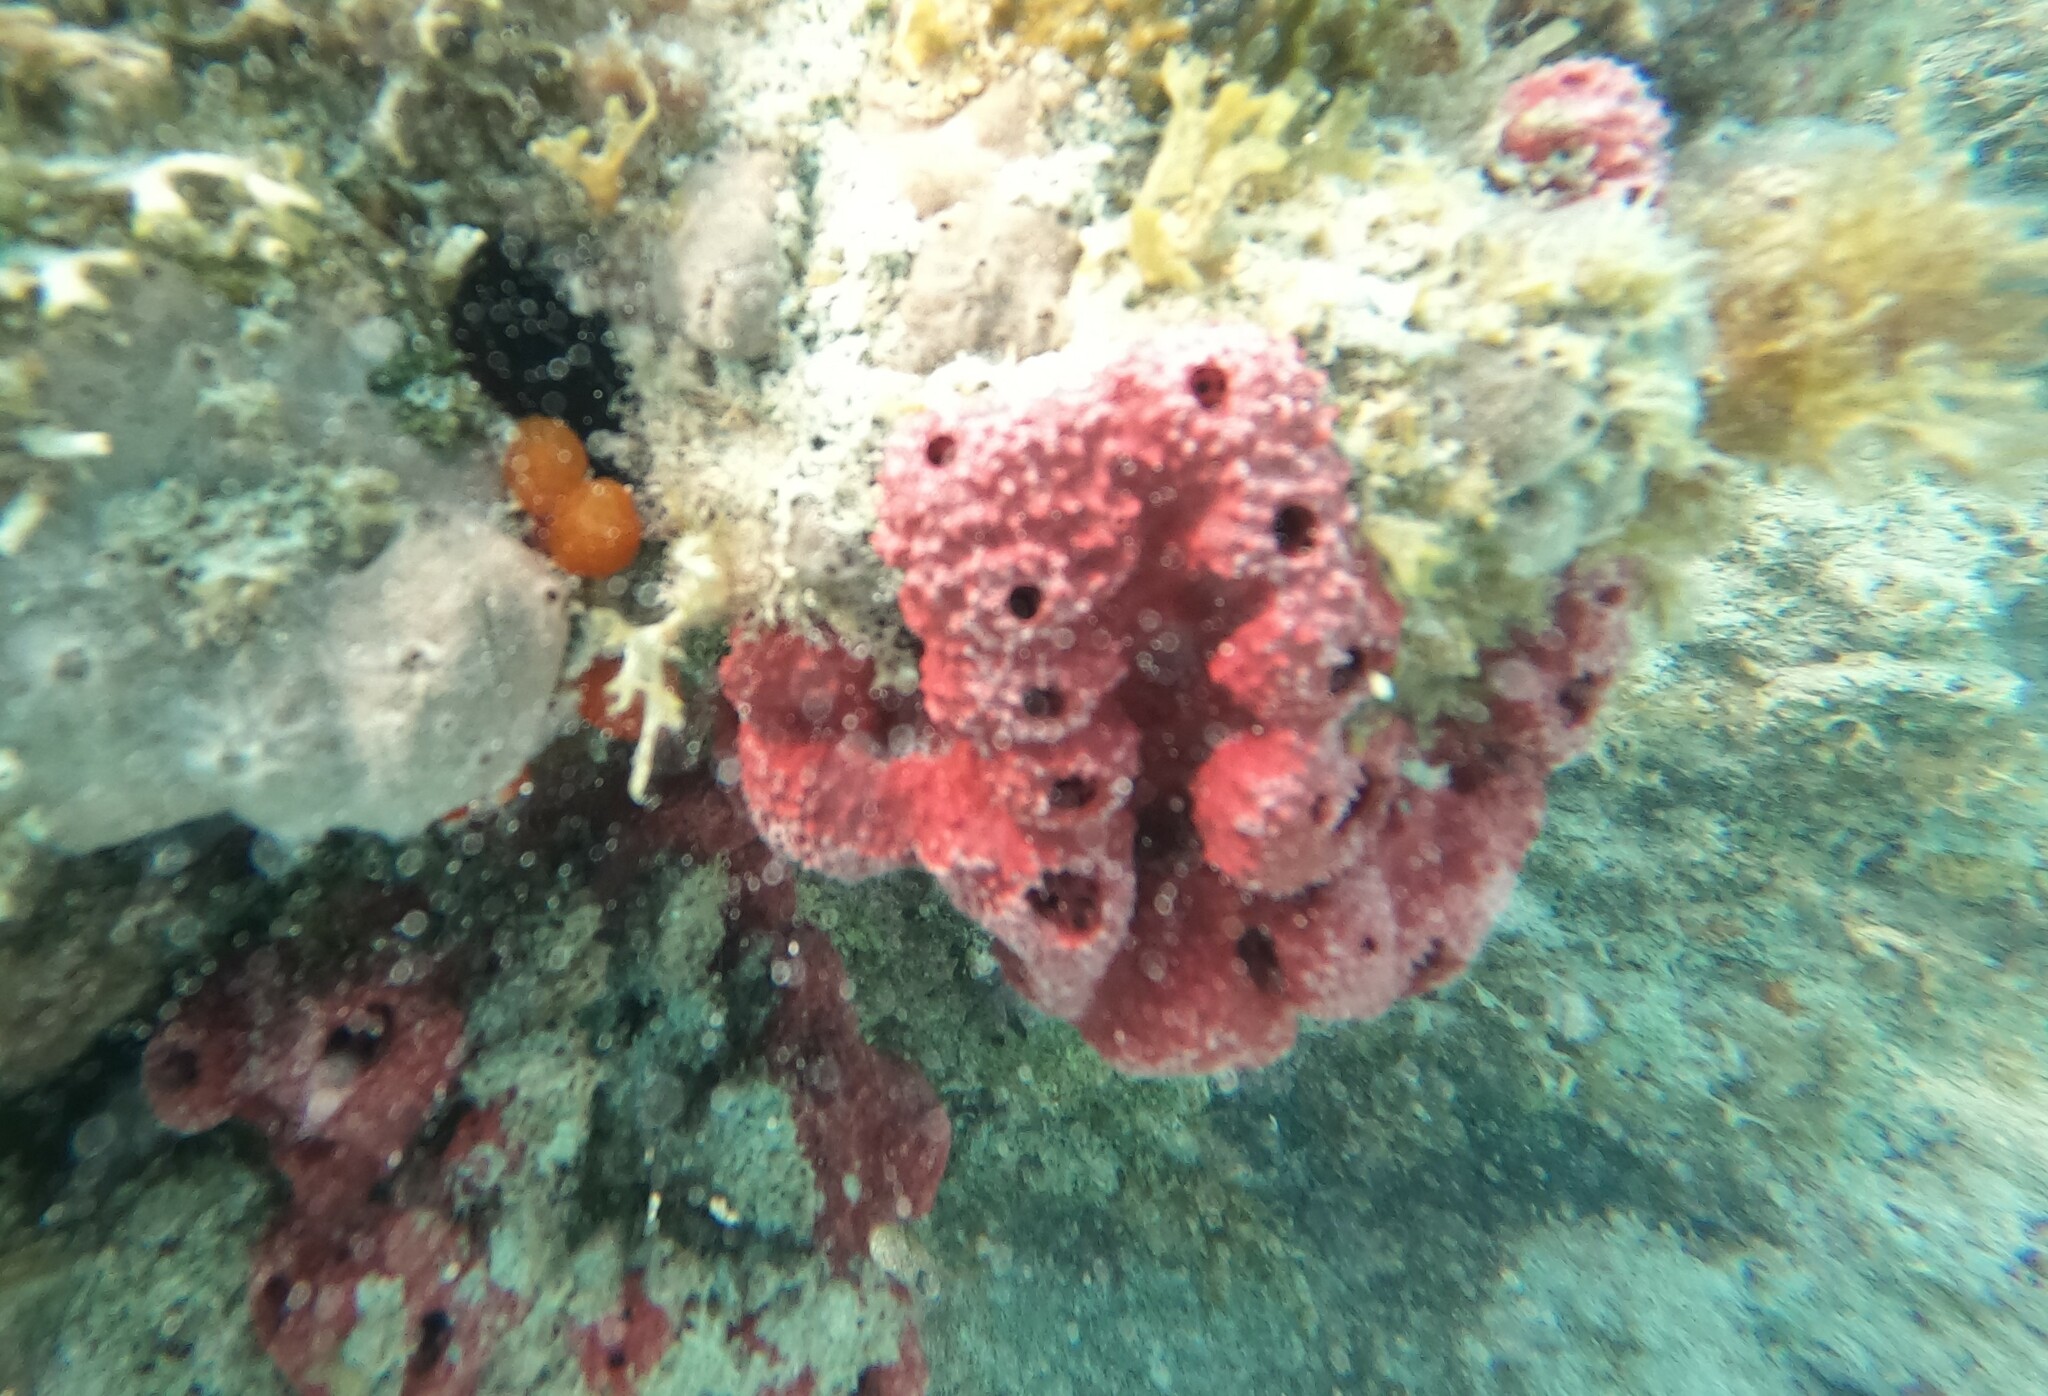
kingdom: Animalia
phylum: Porifera
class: Demospongiae
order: Dendroceratida
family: Dictyodendrillidae
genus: Igernella
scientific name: Igernella notabilis
